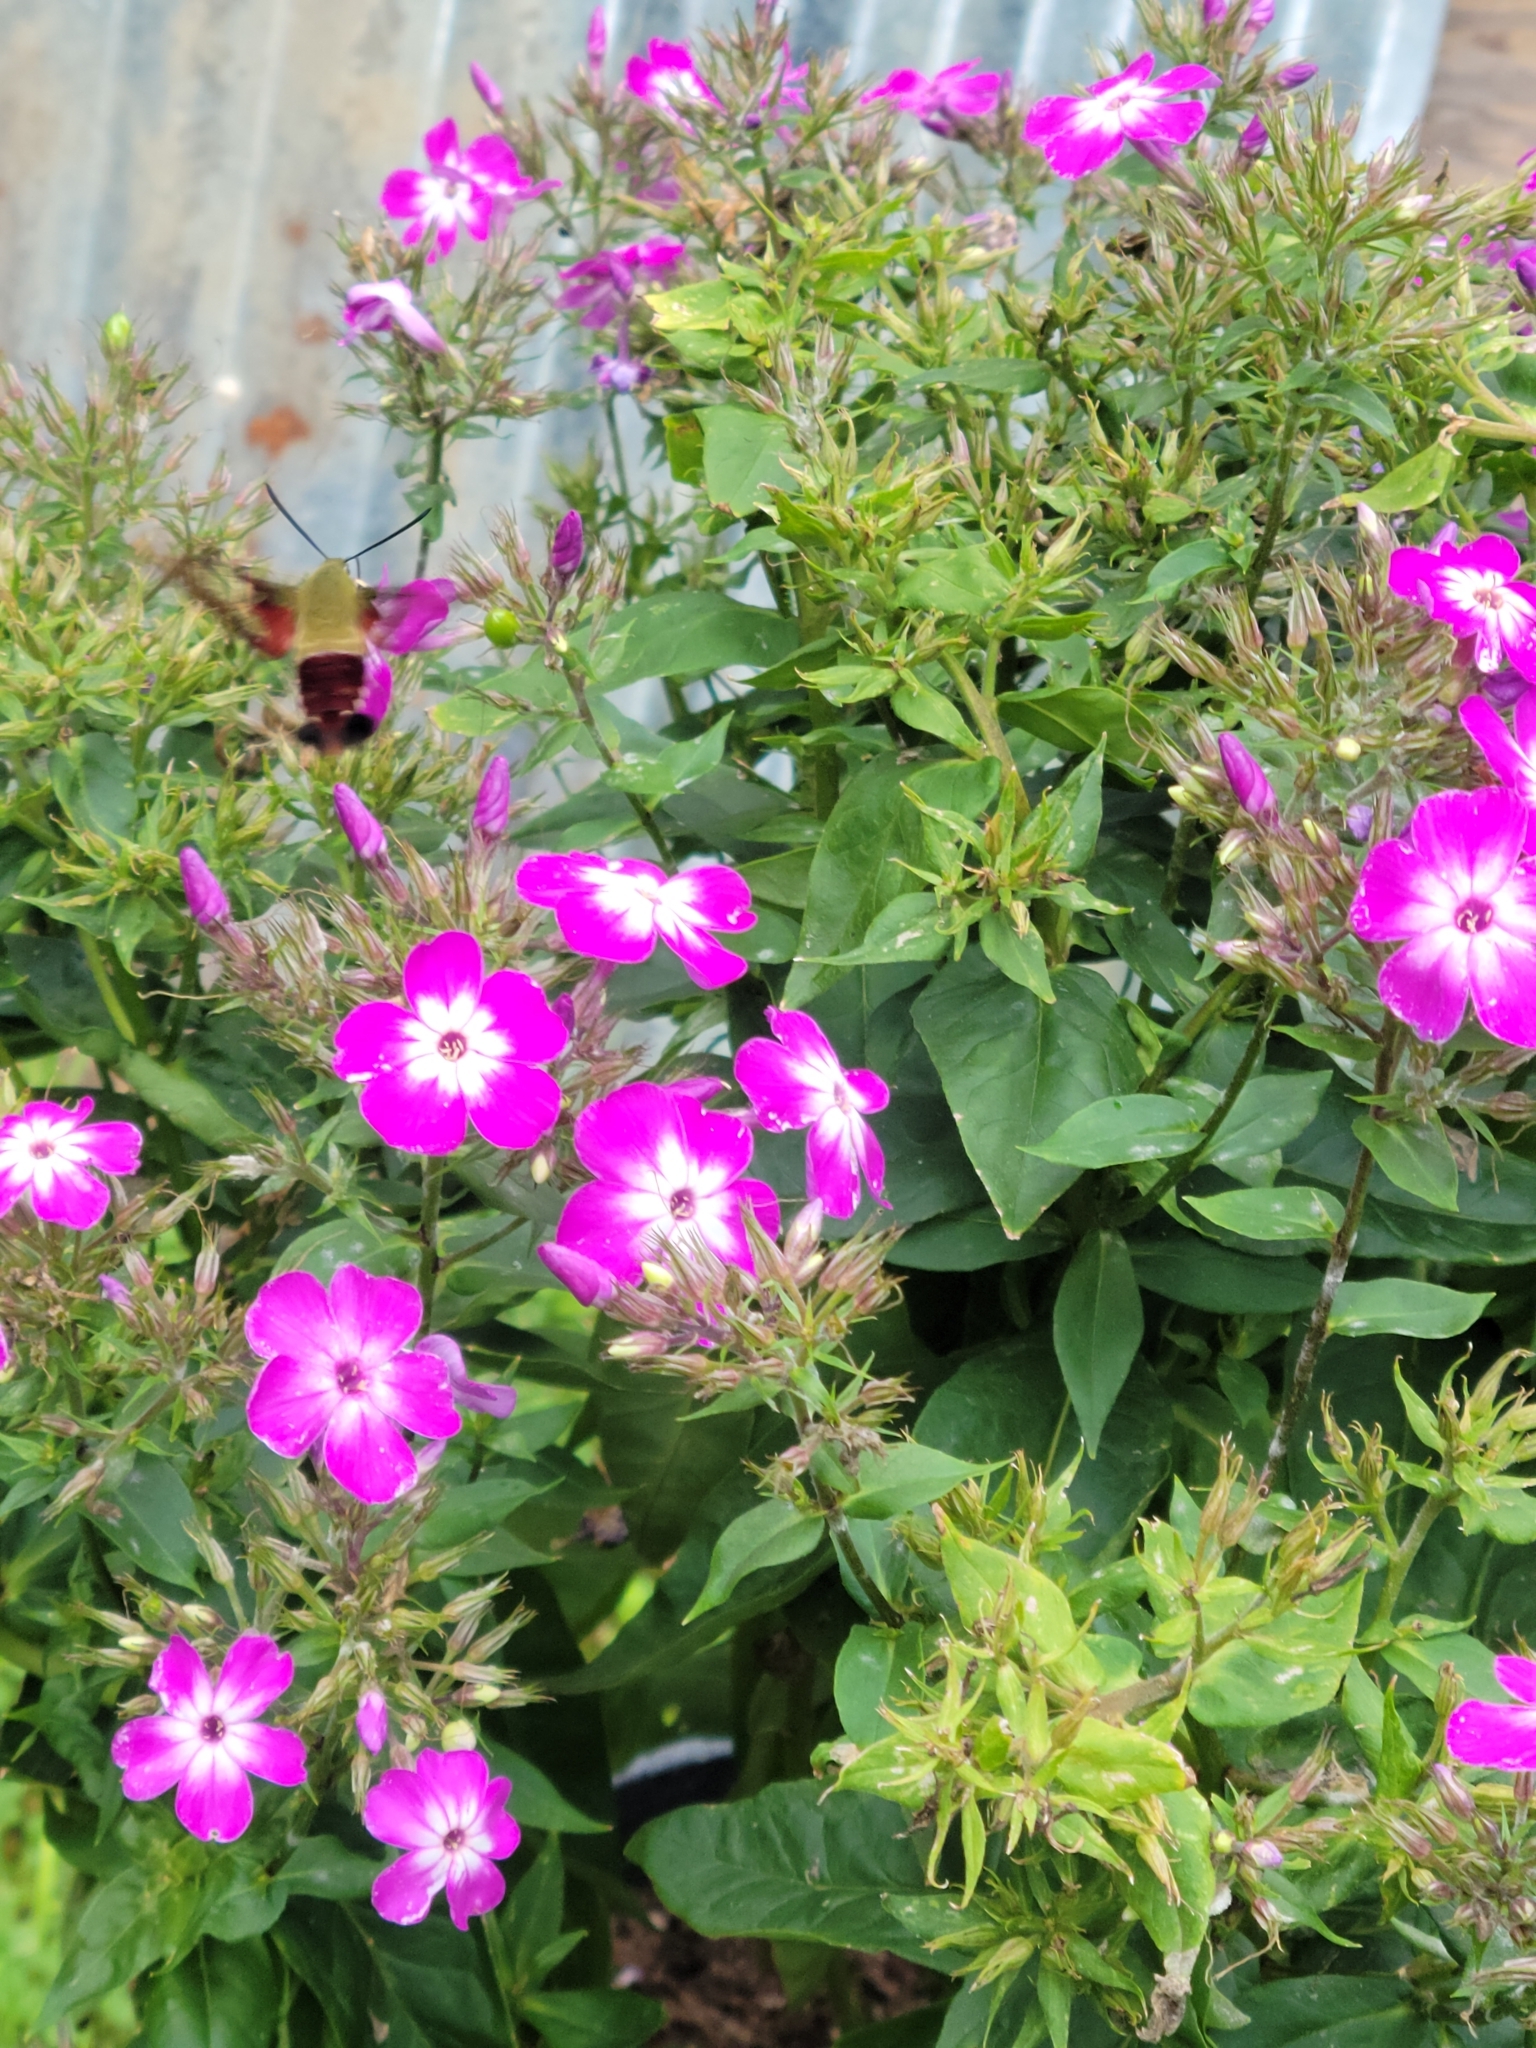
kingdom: Animalia
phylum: Arthropoda
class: Insecta
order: Lepidoptera
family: Sphingidae
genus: Hemaris
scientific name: Hemaris thysbe
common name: Common clear-wing
